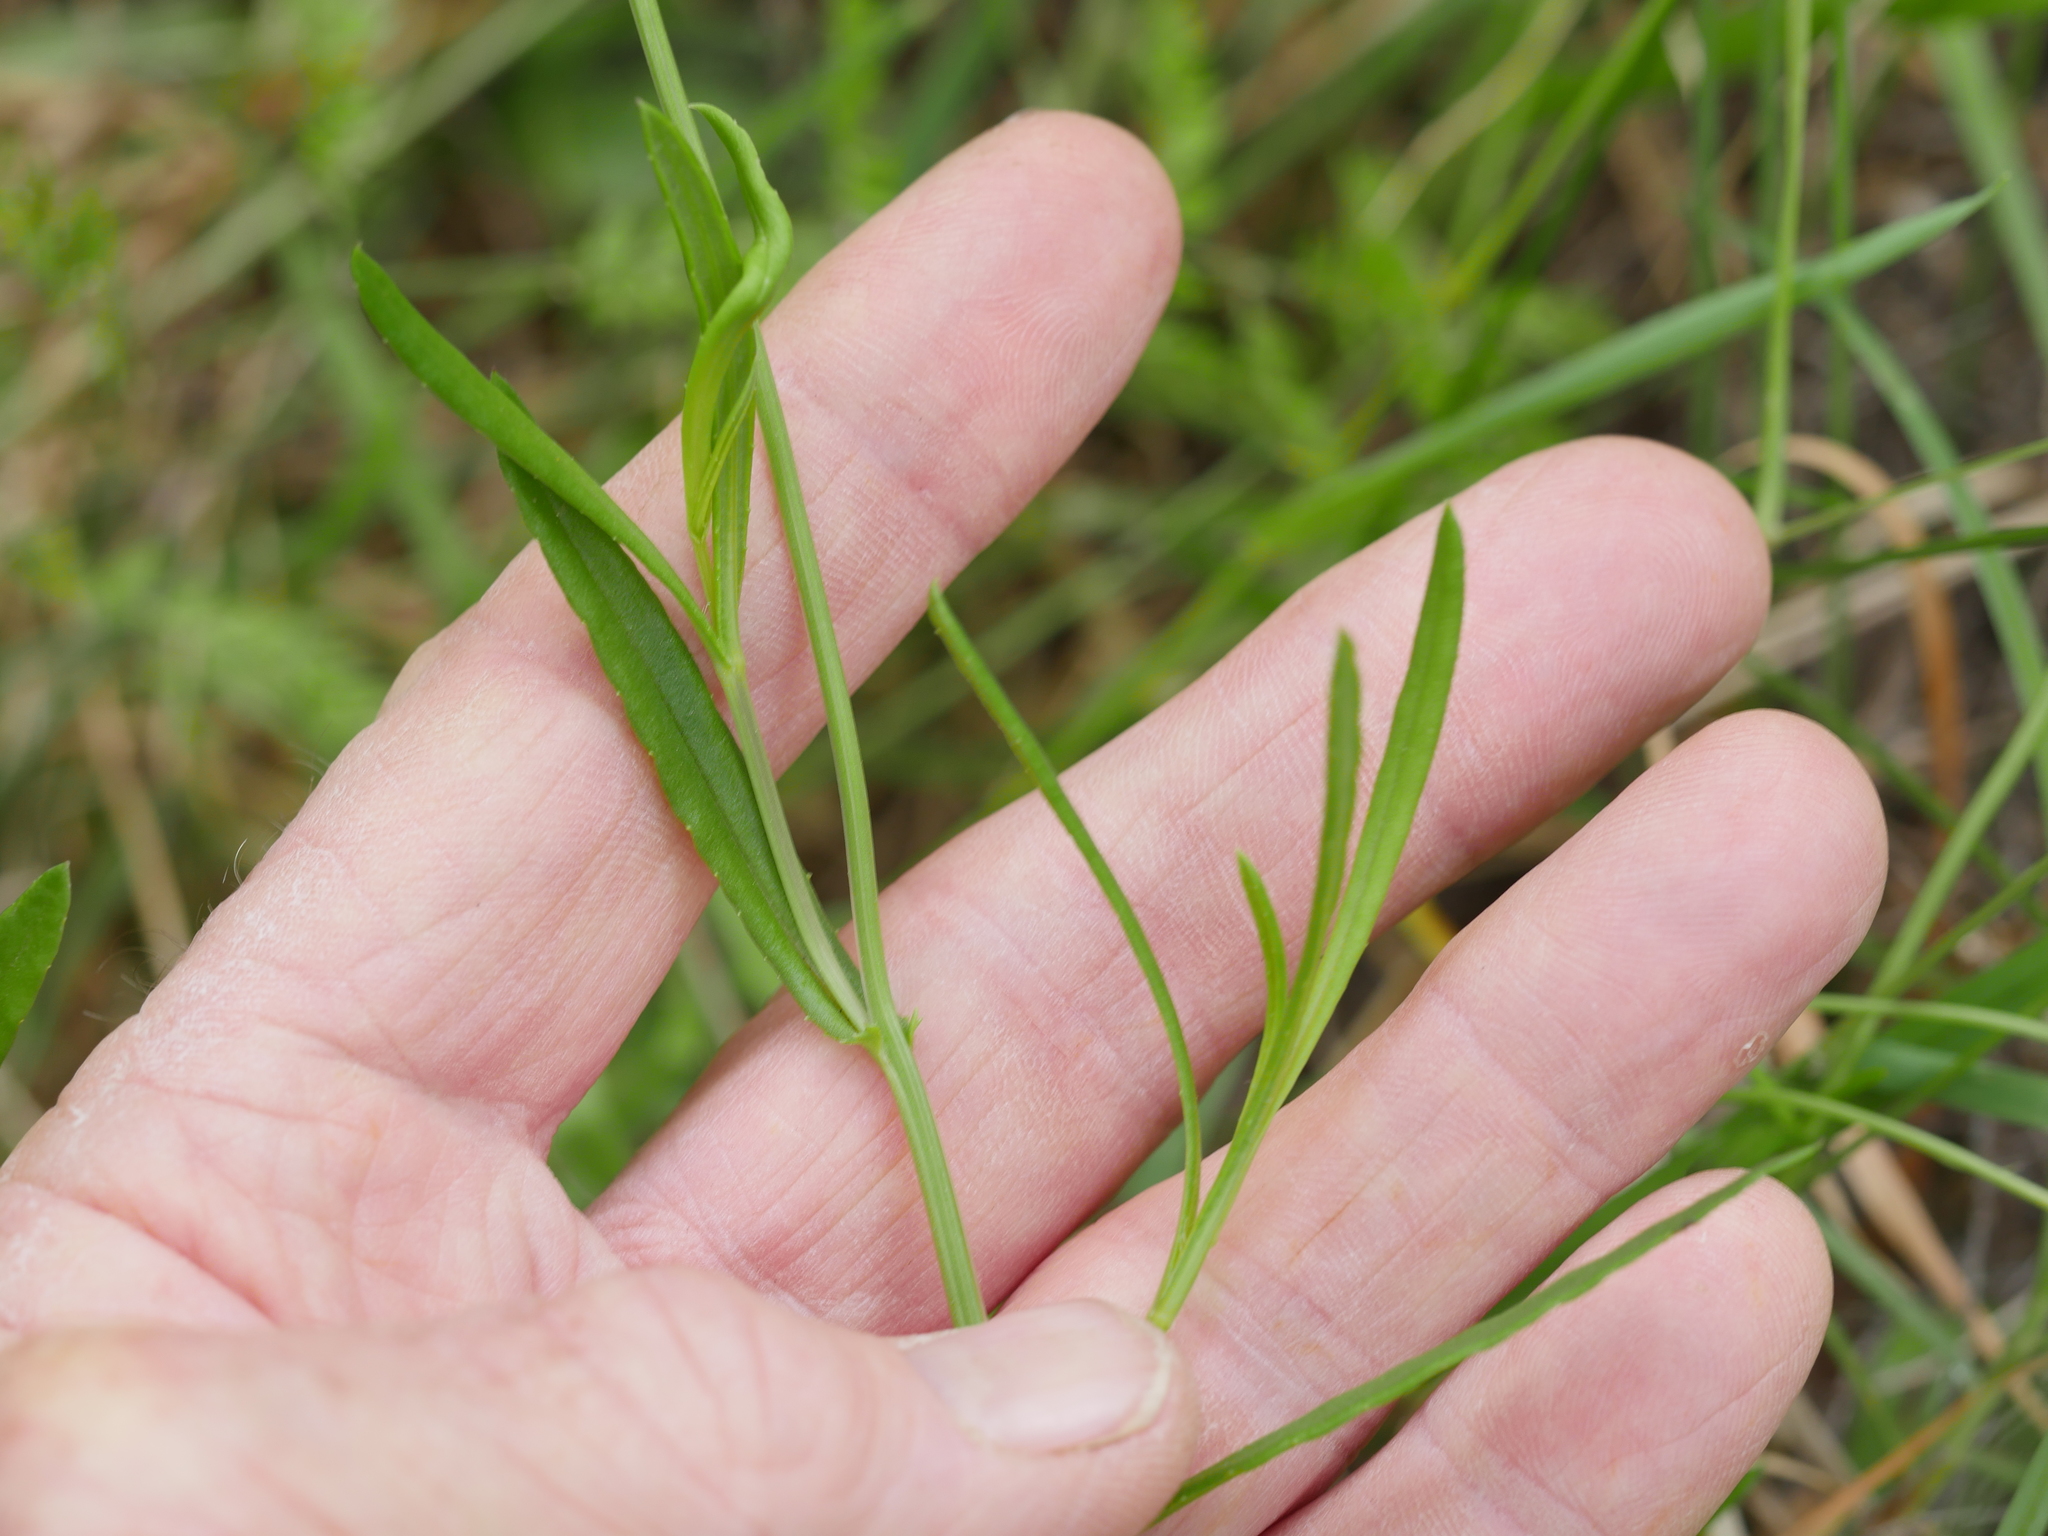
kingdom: Plantae
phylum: Tracheophyta
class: Magnoliopsida
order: Asterales
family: Asteraceae
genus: Senecio
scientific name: Senecio skirrhodon
